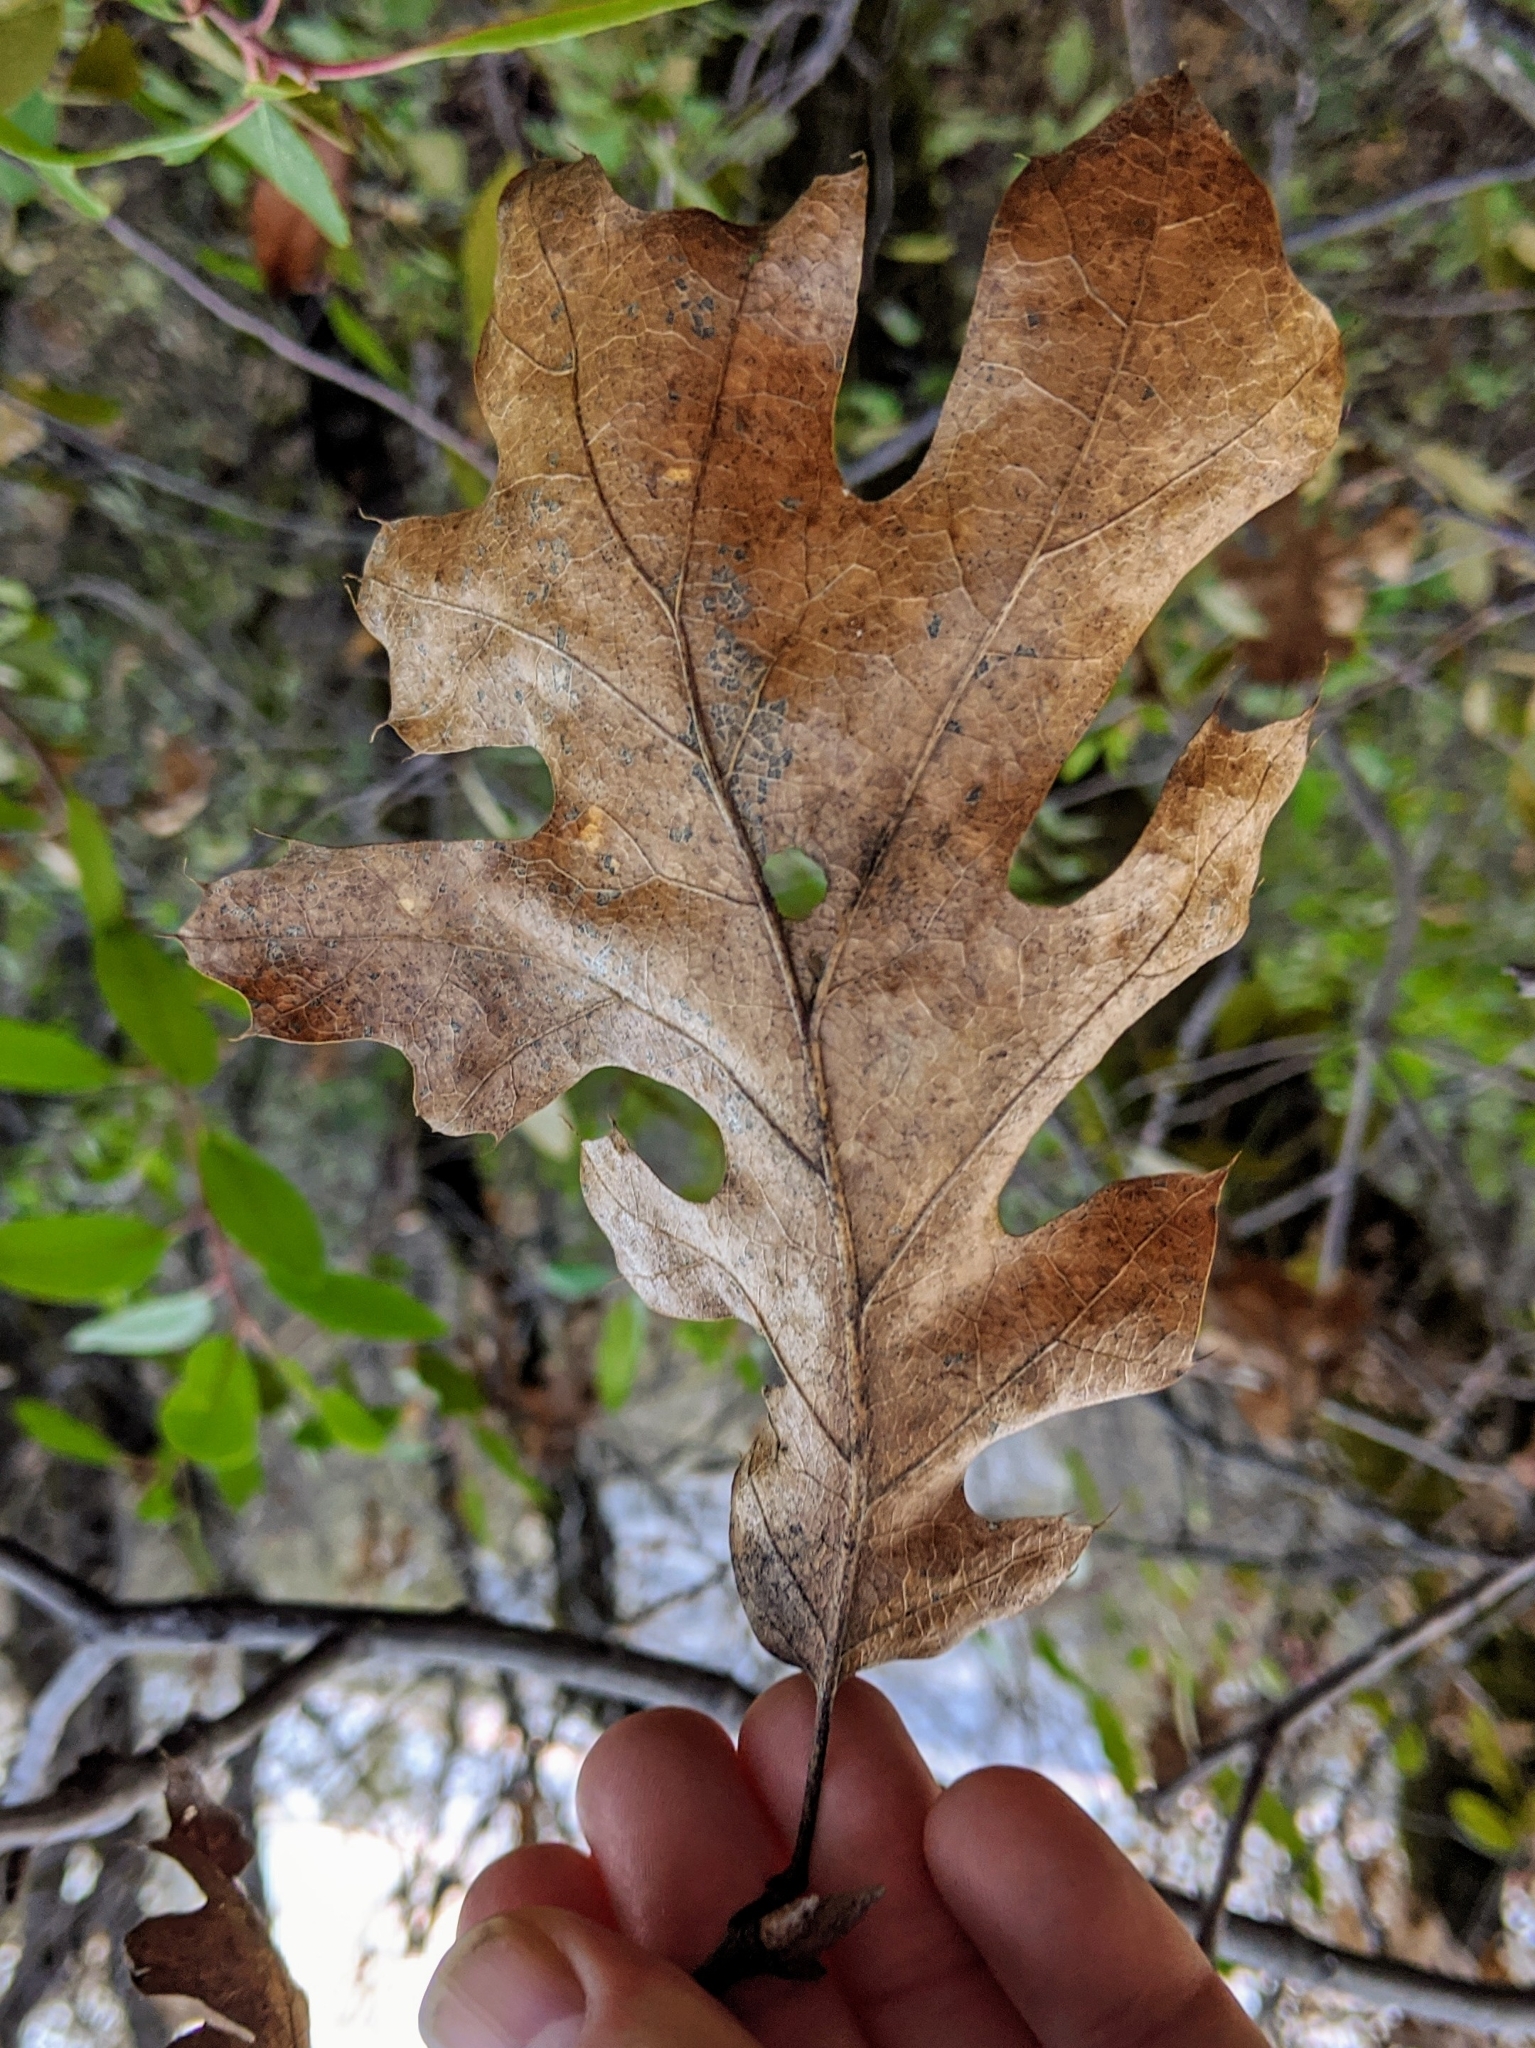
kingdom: Plantae
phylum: Tracheophyta
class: Magnoliopsida
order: Fagales
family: Fagaceae
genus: Quercus
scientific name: Quercus kelloggii
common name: California black oak
